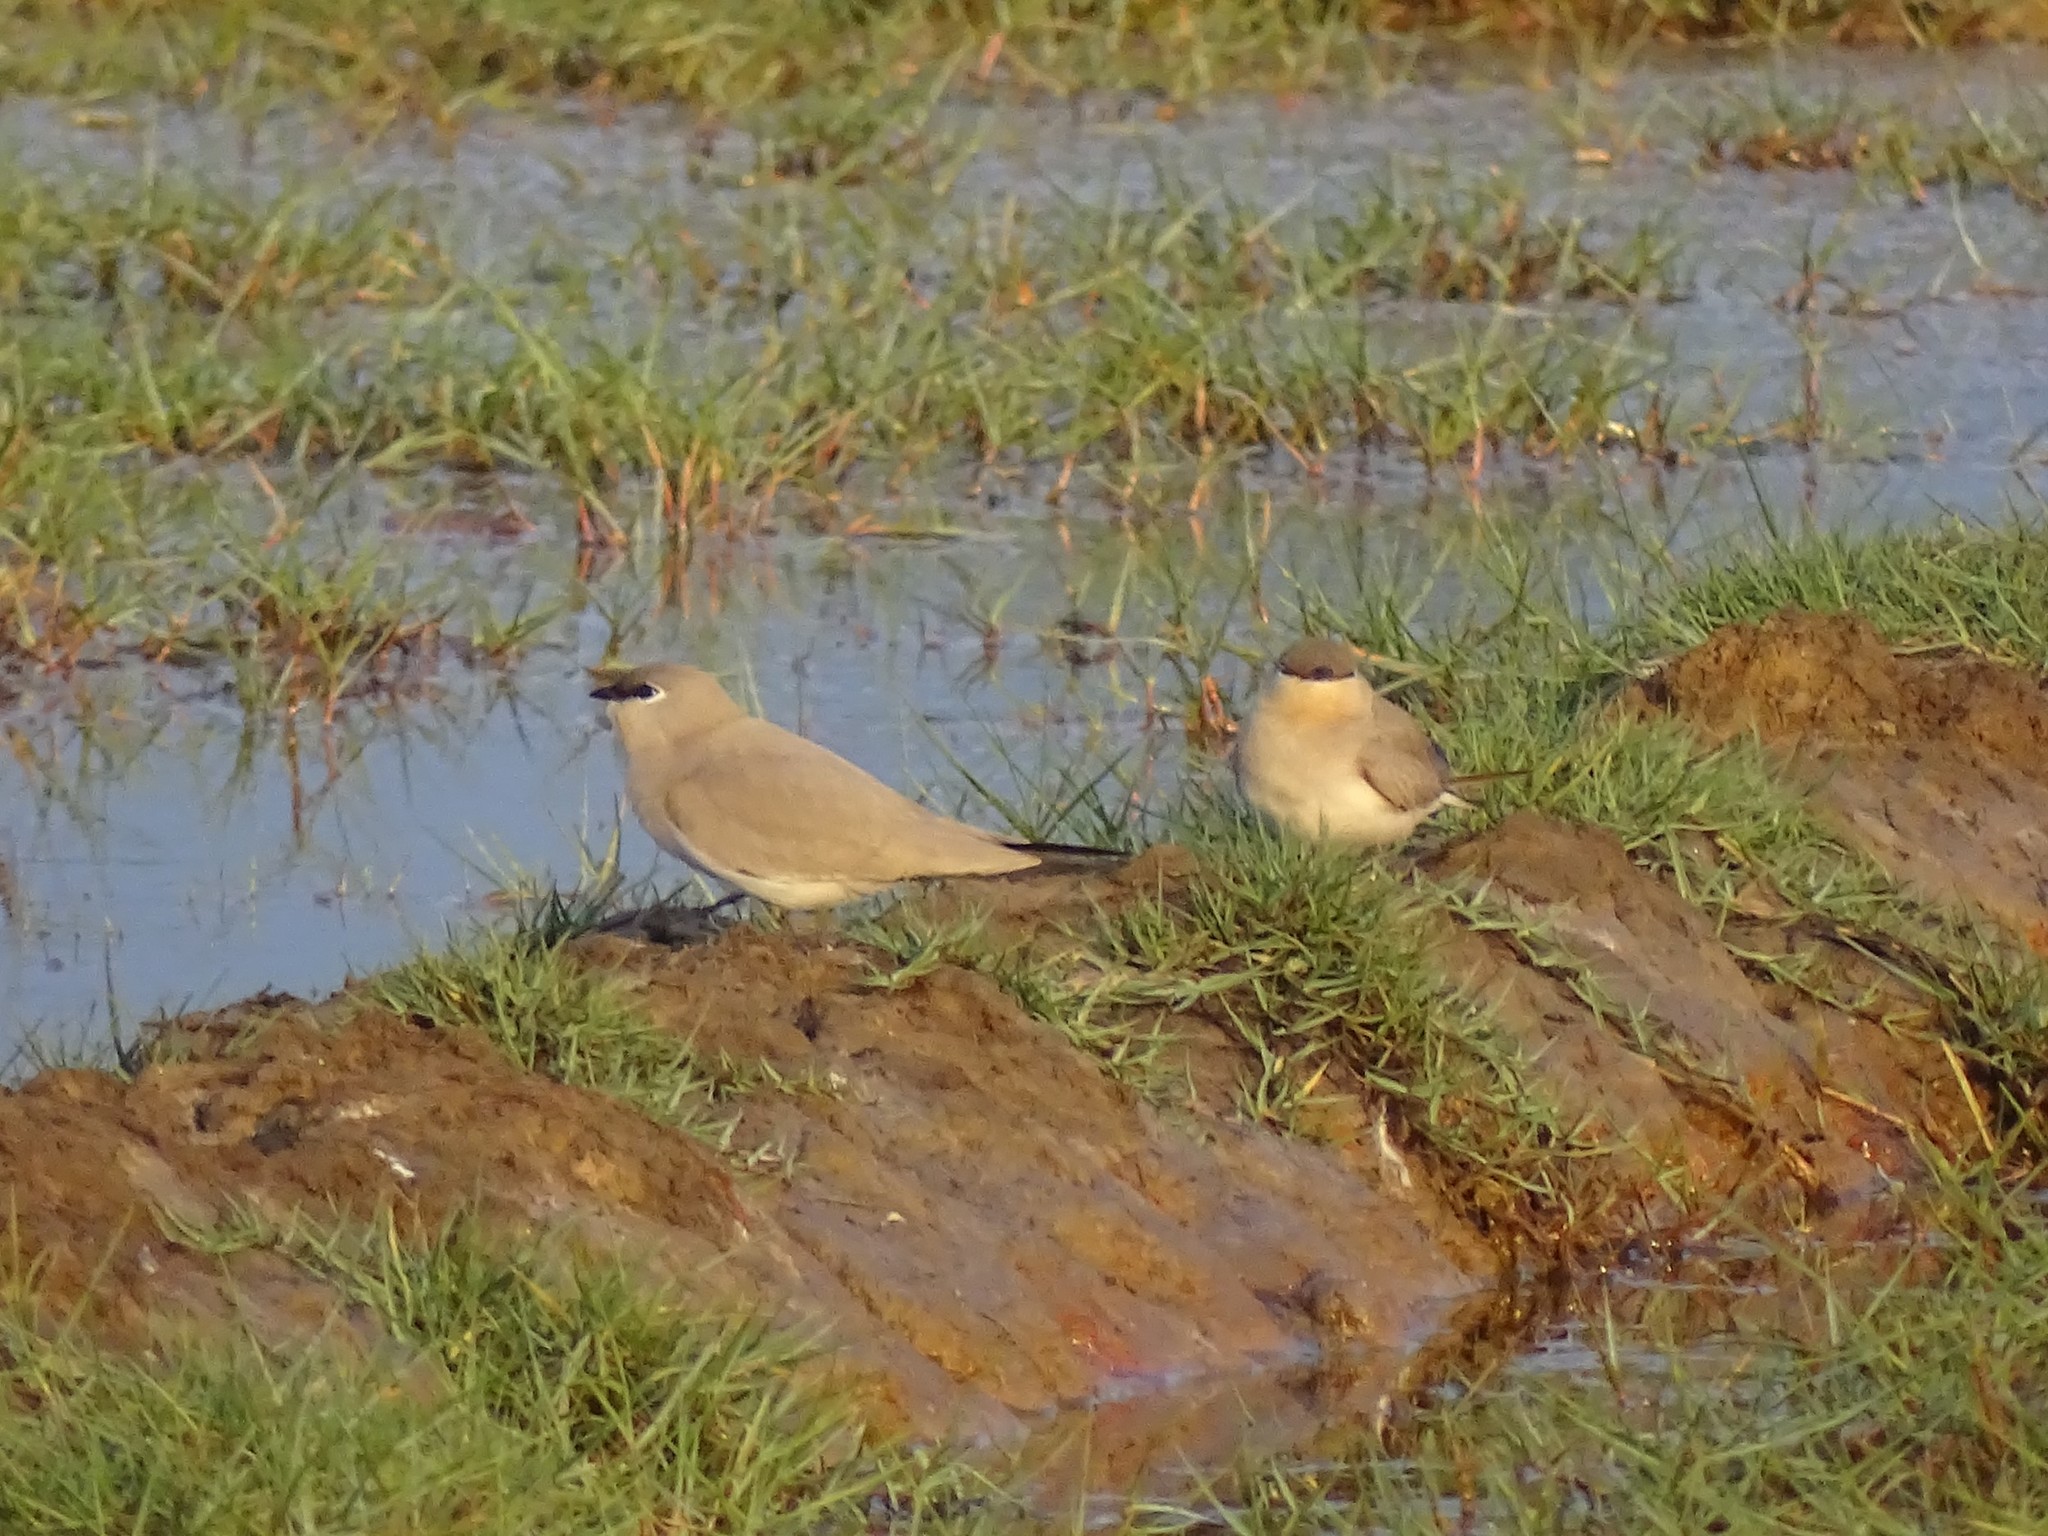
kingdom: Animalia
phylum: Chordata
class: Aves
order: Charadriiformes
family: Glareolidae
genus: Glareola
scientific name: Glareola lactea
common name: Small pratincole
